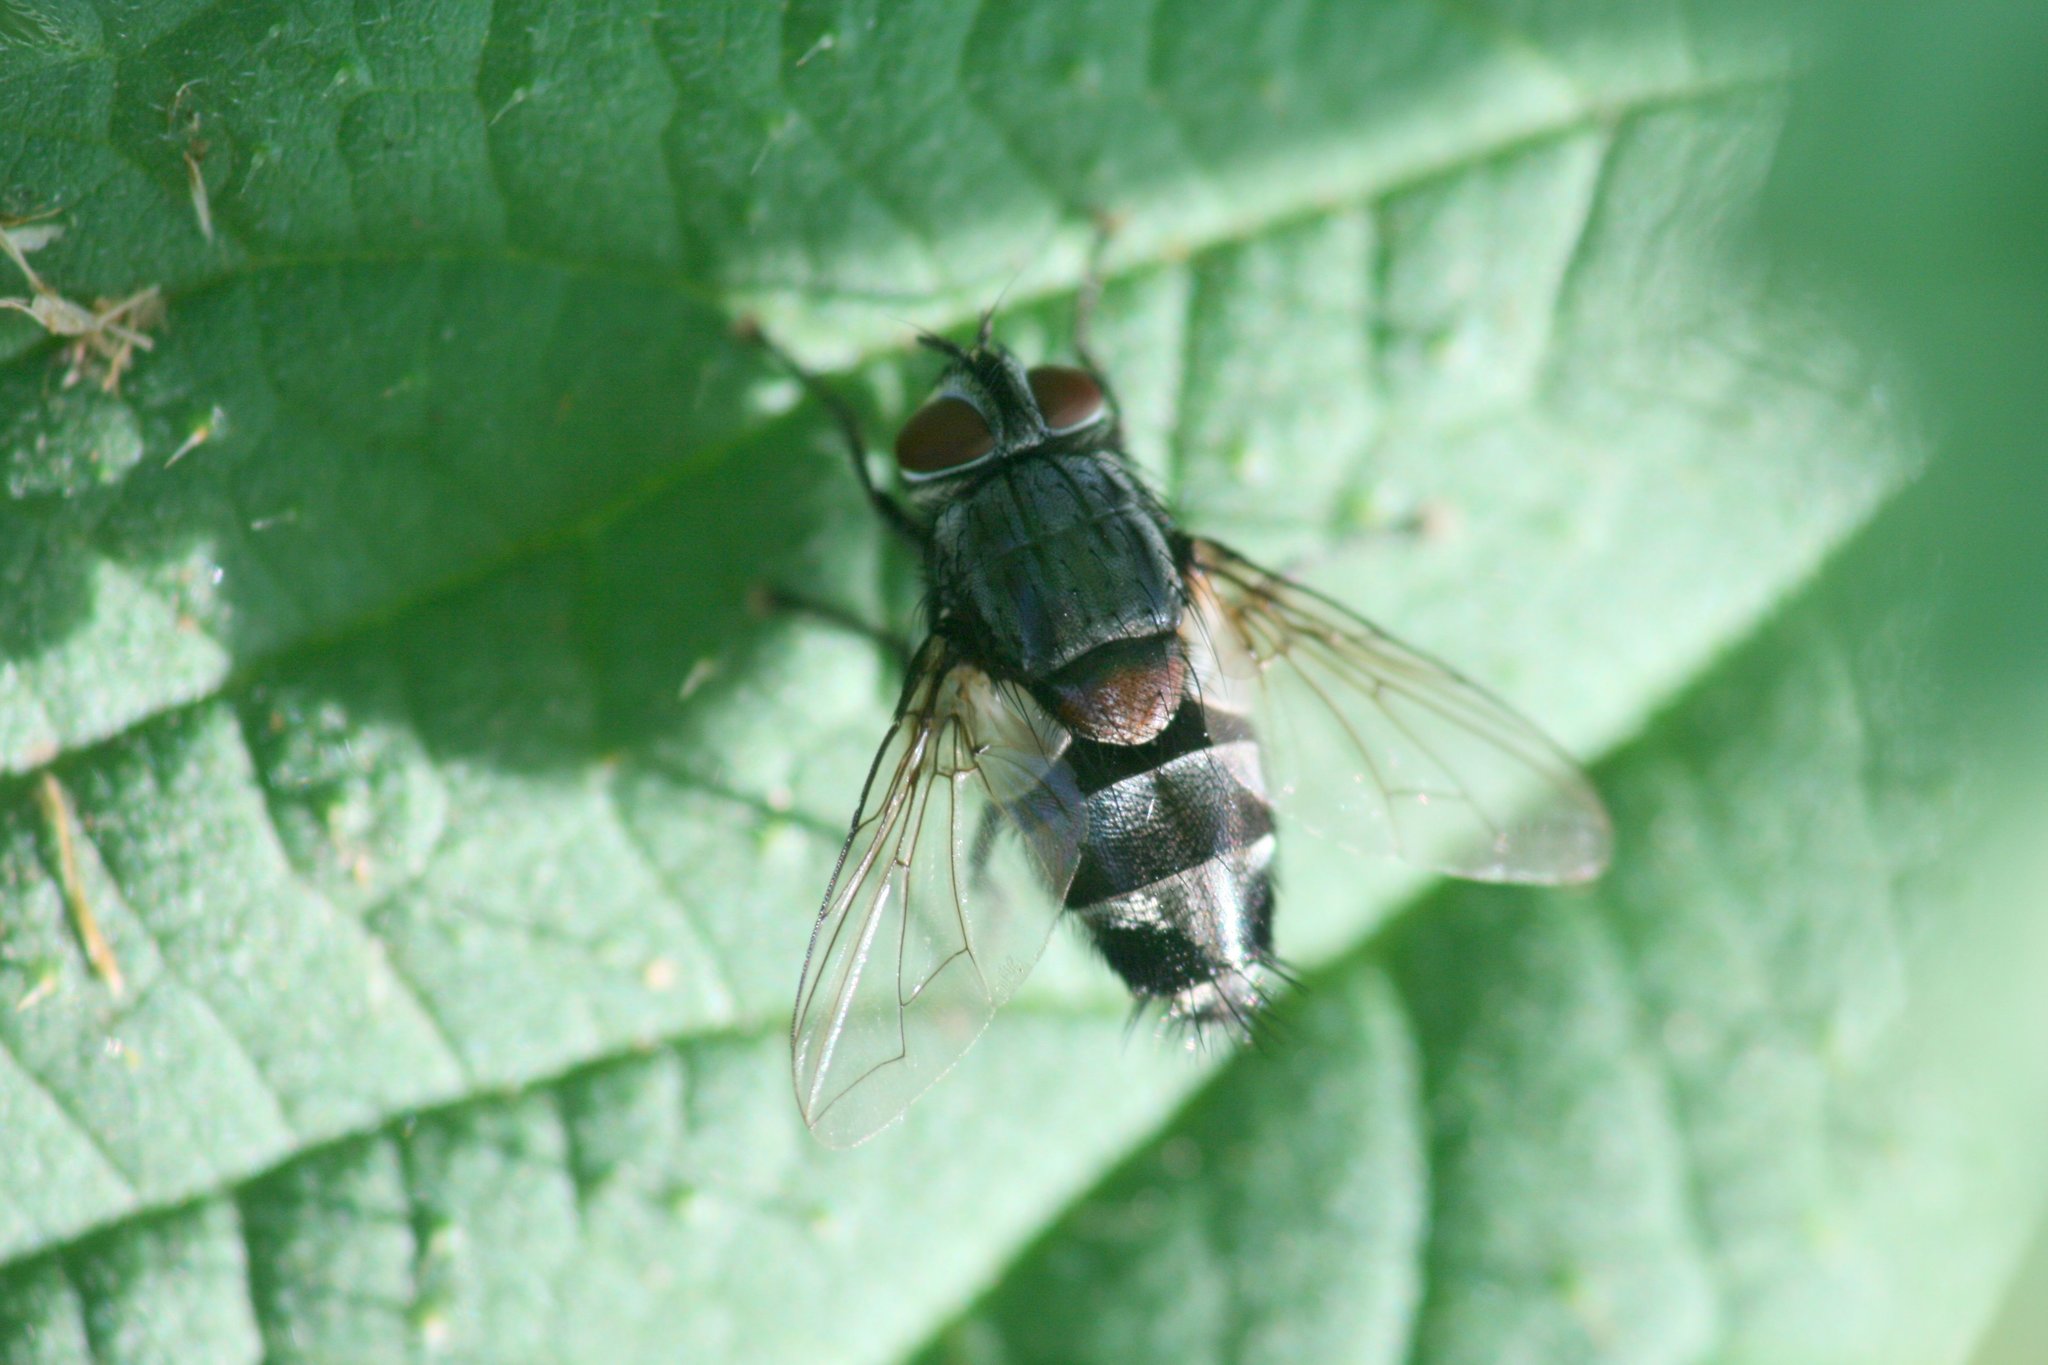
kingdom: Animalia
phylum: Arthropoda
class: Insecta
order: Diptera
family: Tachinidae
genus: Sturmia
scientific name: Sturmia bella
